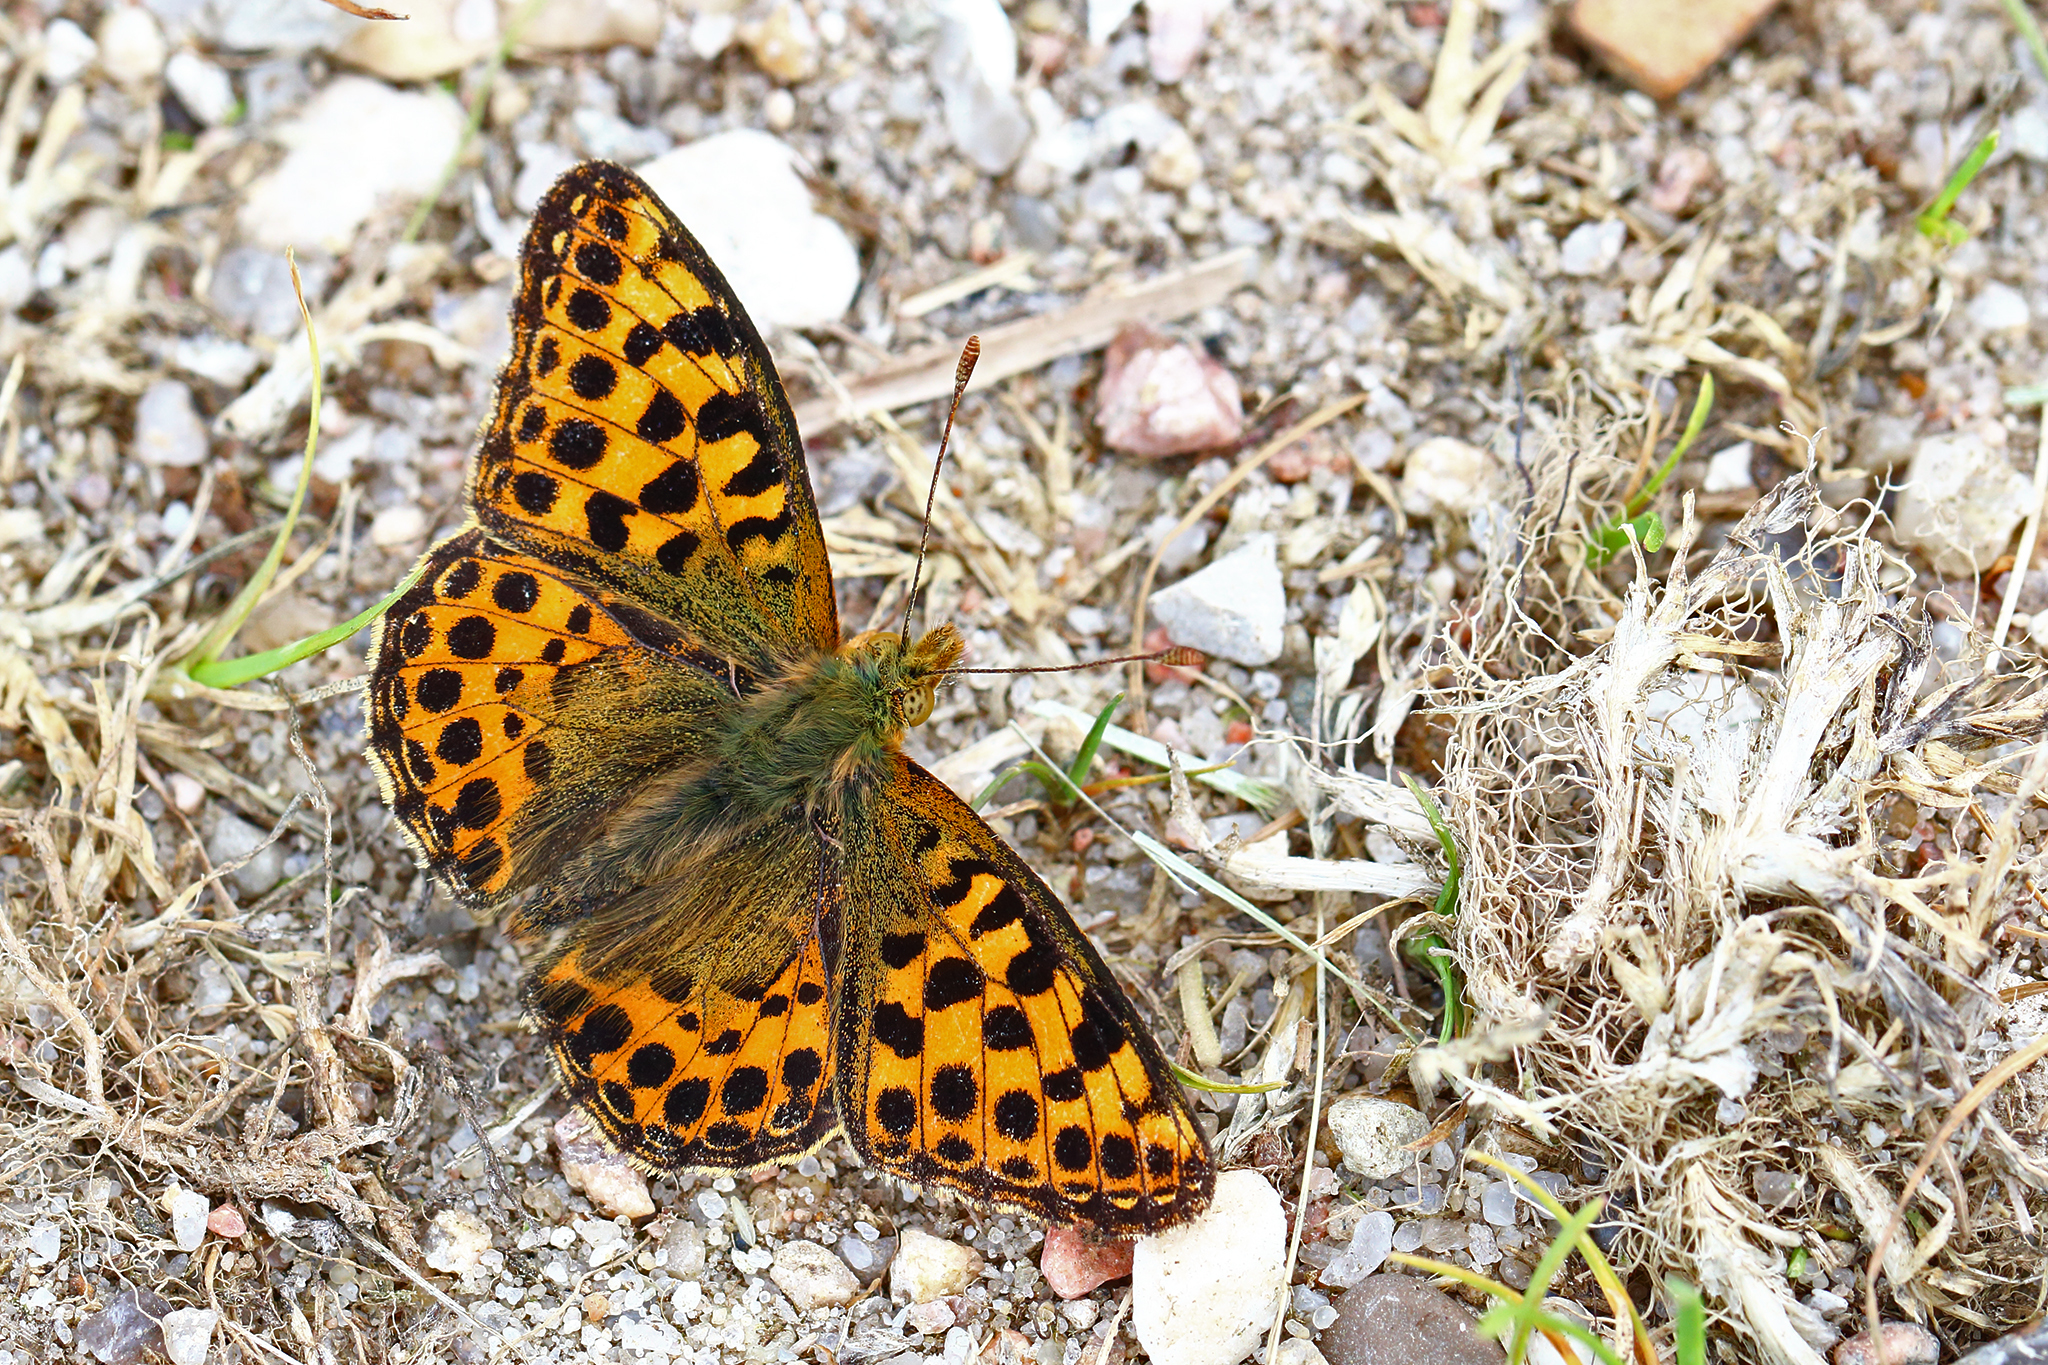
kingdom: Animalia
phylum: Arthropoda
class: Insecta
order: Lepidoptera
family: Nymphalidae
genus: Issoria
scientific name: Issoria lathonia
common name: Queen of spain fritillary
